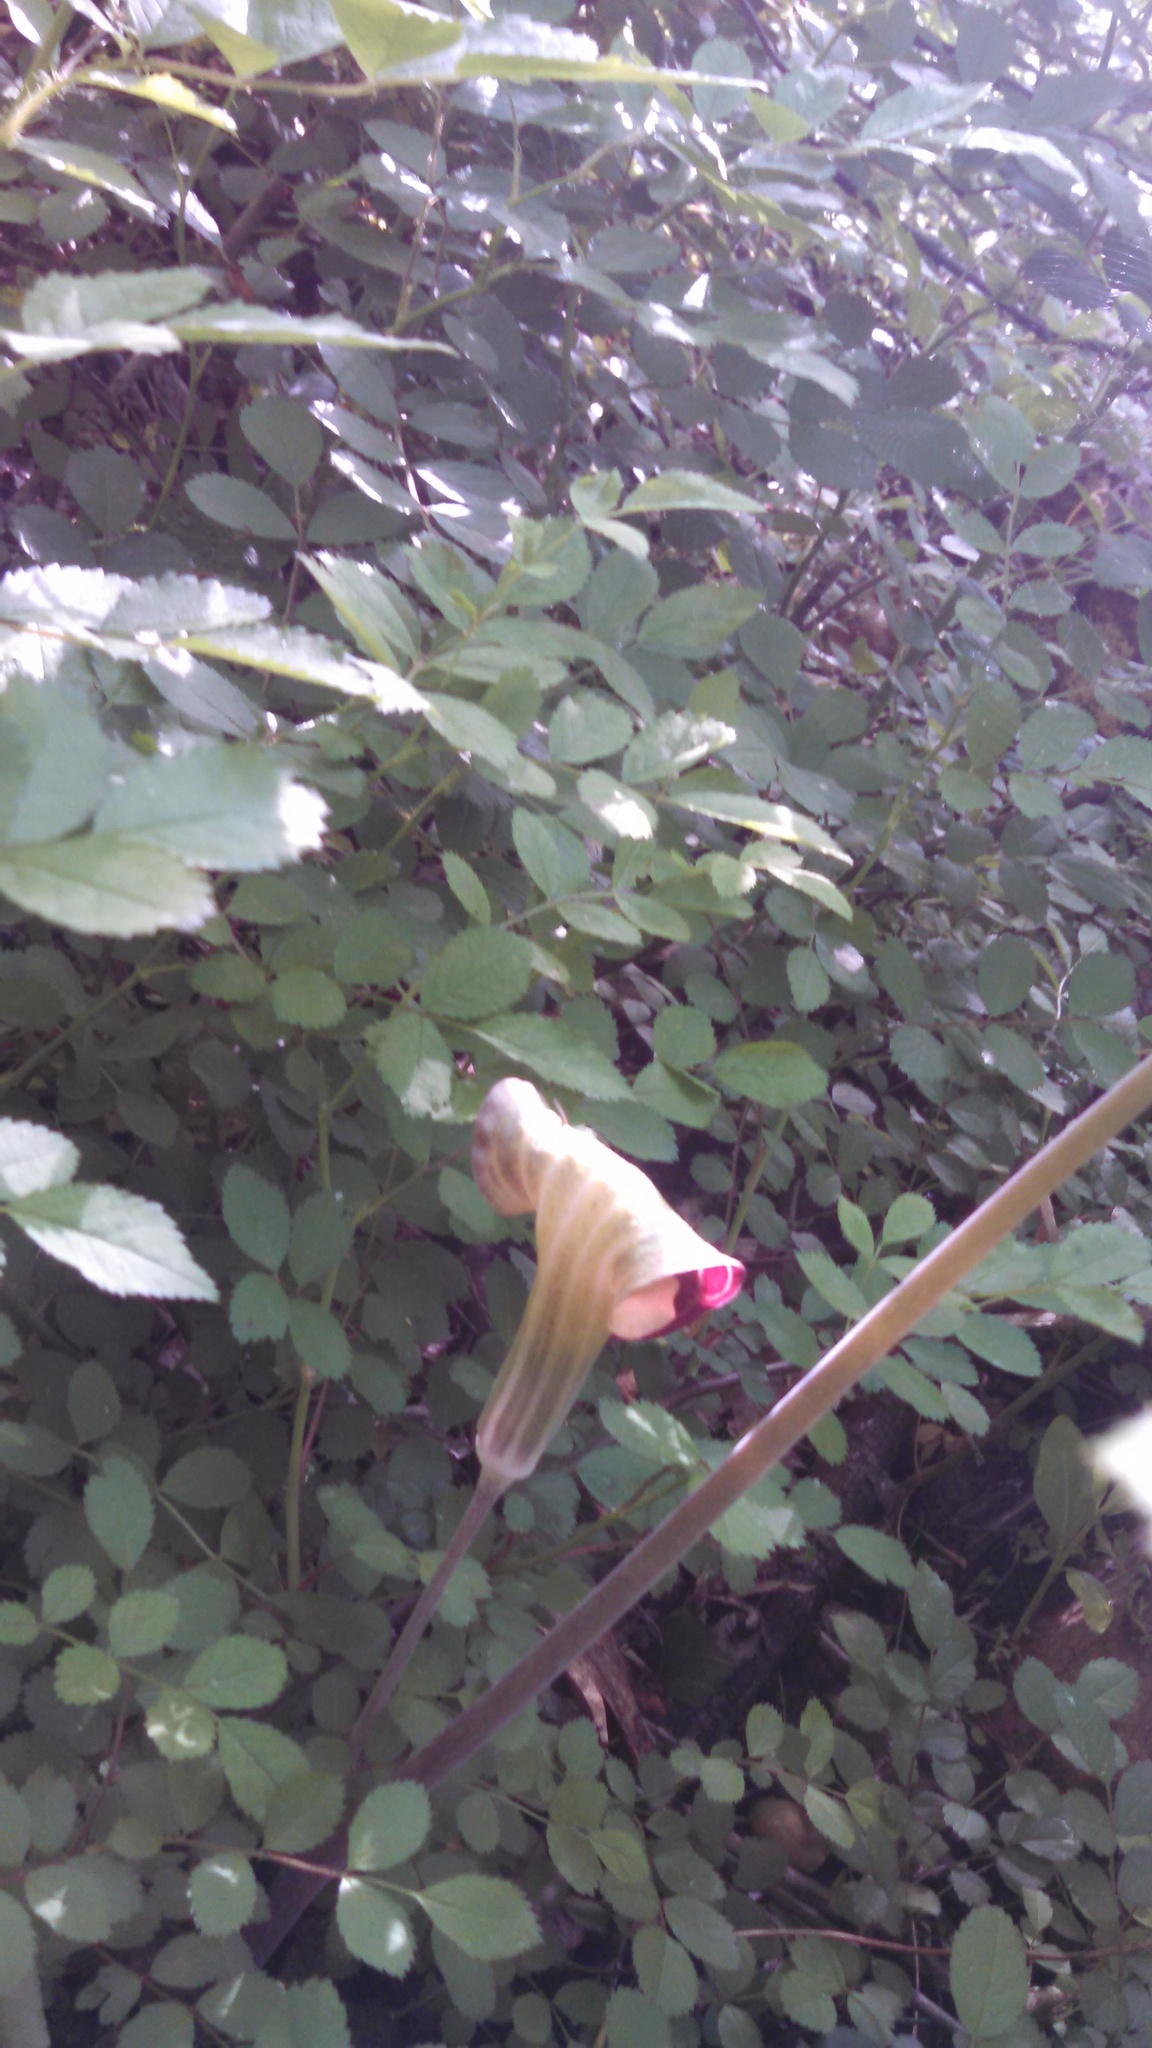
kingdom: Plantae
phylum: Tracheophyta
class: Liliopsida
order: Alismatales
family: Araceae
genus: Arisaema
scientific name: Arisaema triphyllum
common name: Jack-in-the-pulpit
